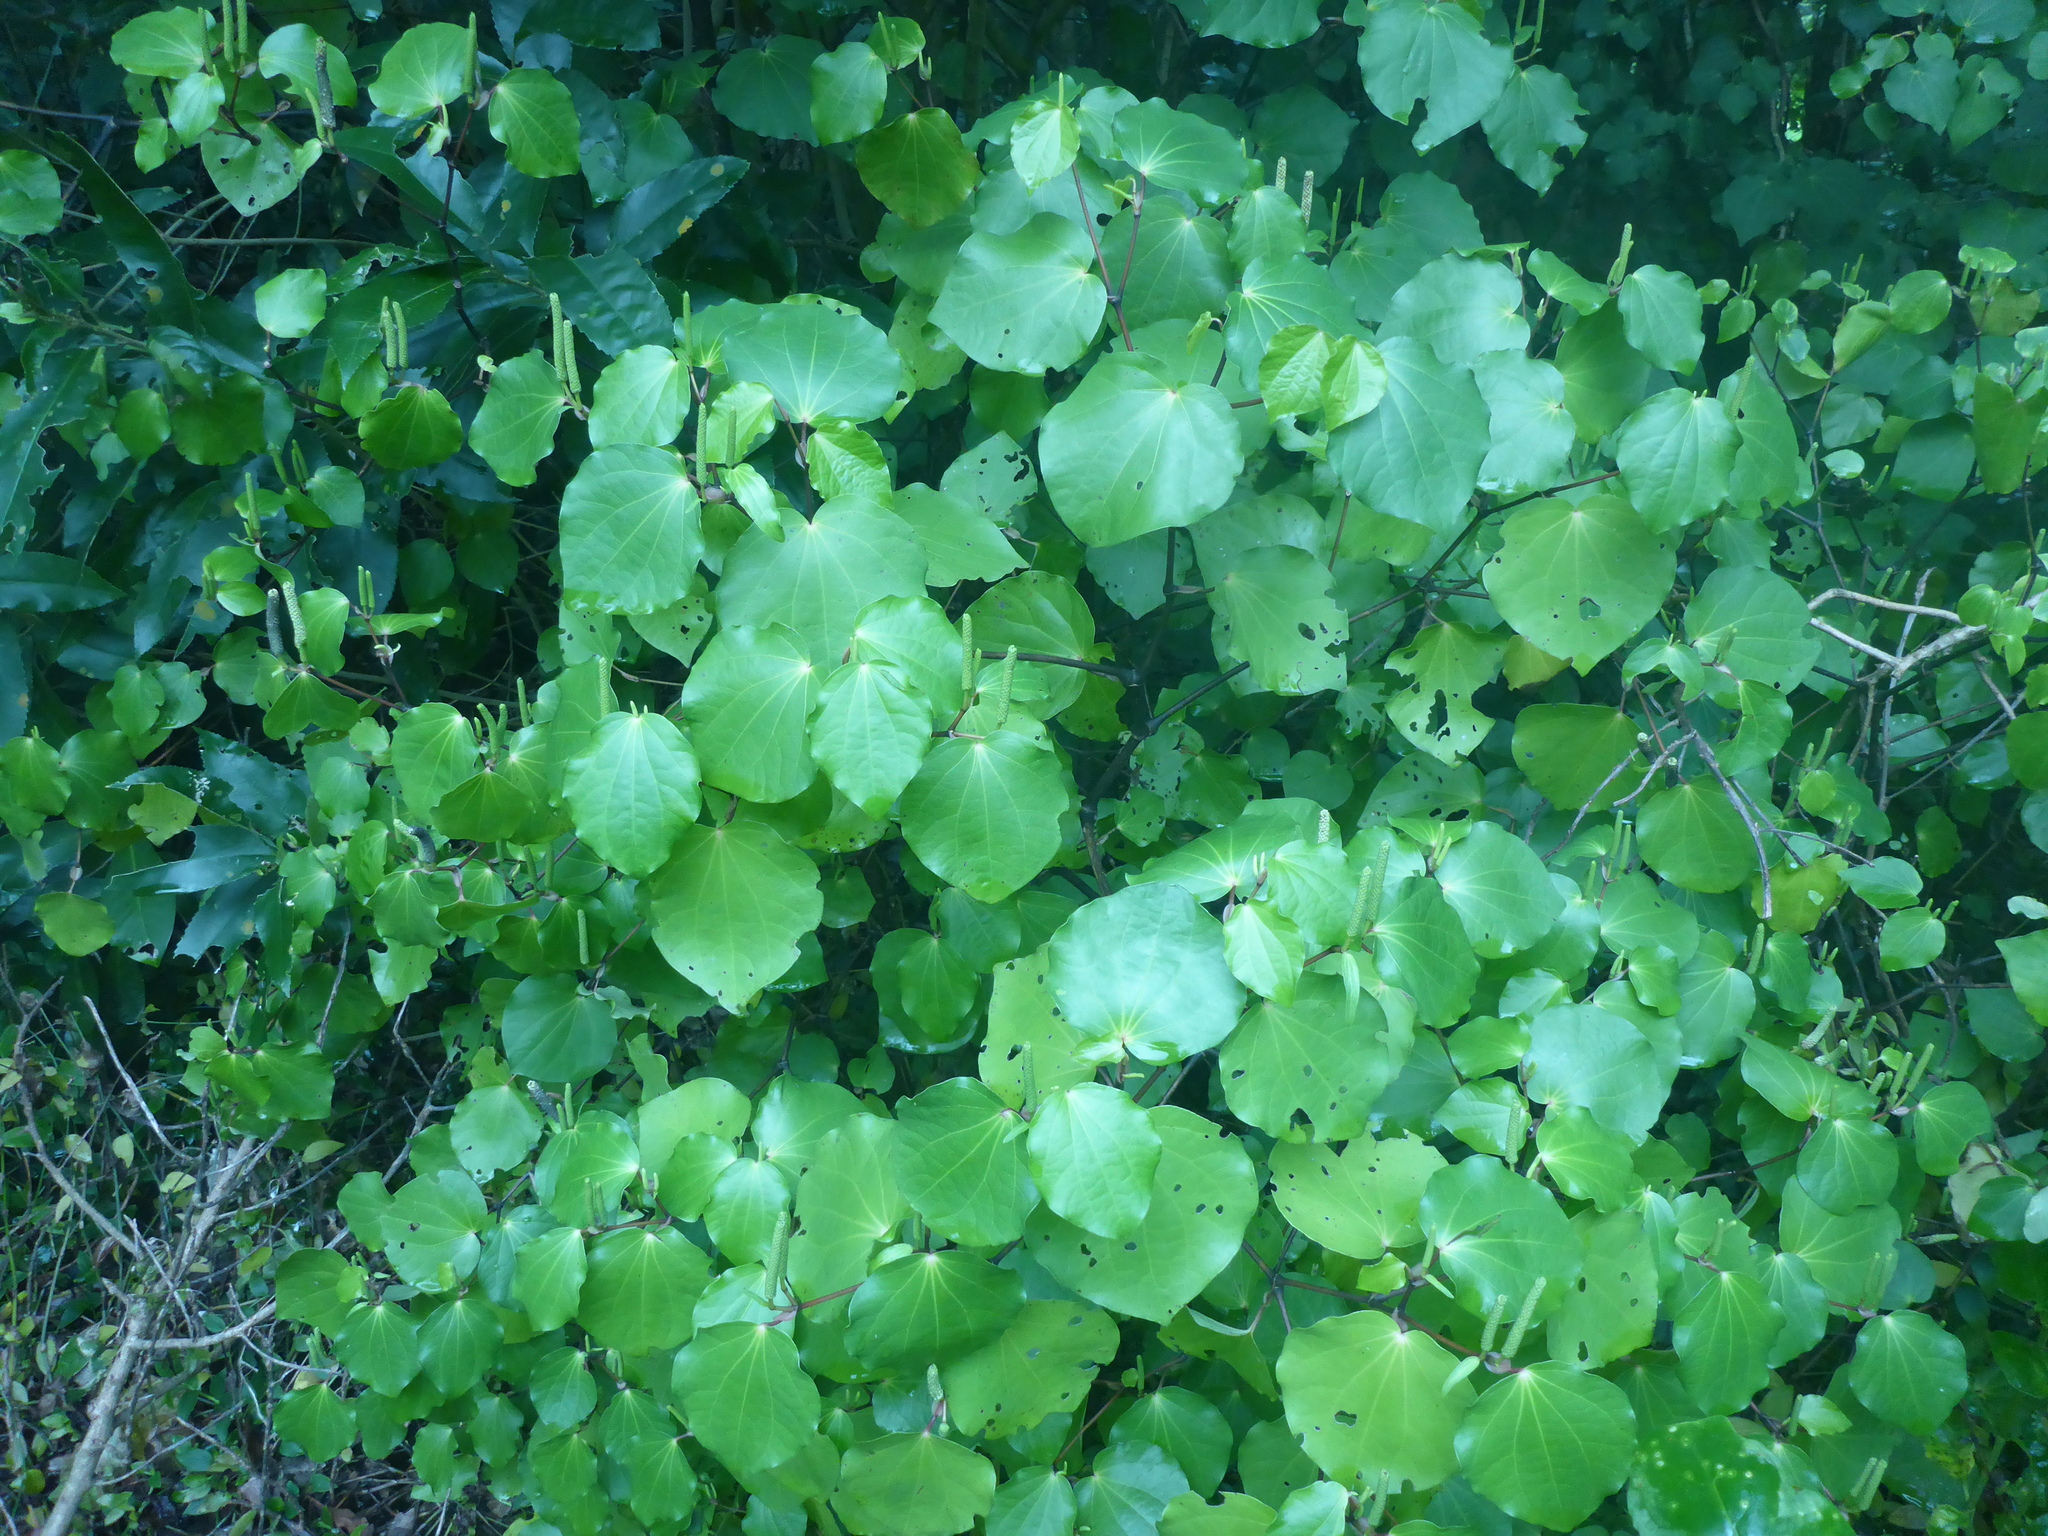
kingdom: Plantae
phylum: Tracheophyta
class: Magnoliopsida
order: Piperales
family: Piperaceae
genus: Macropiper
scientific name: Macropiper excelsum
